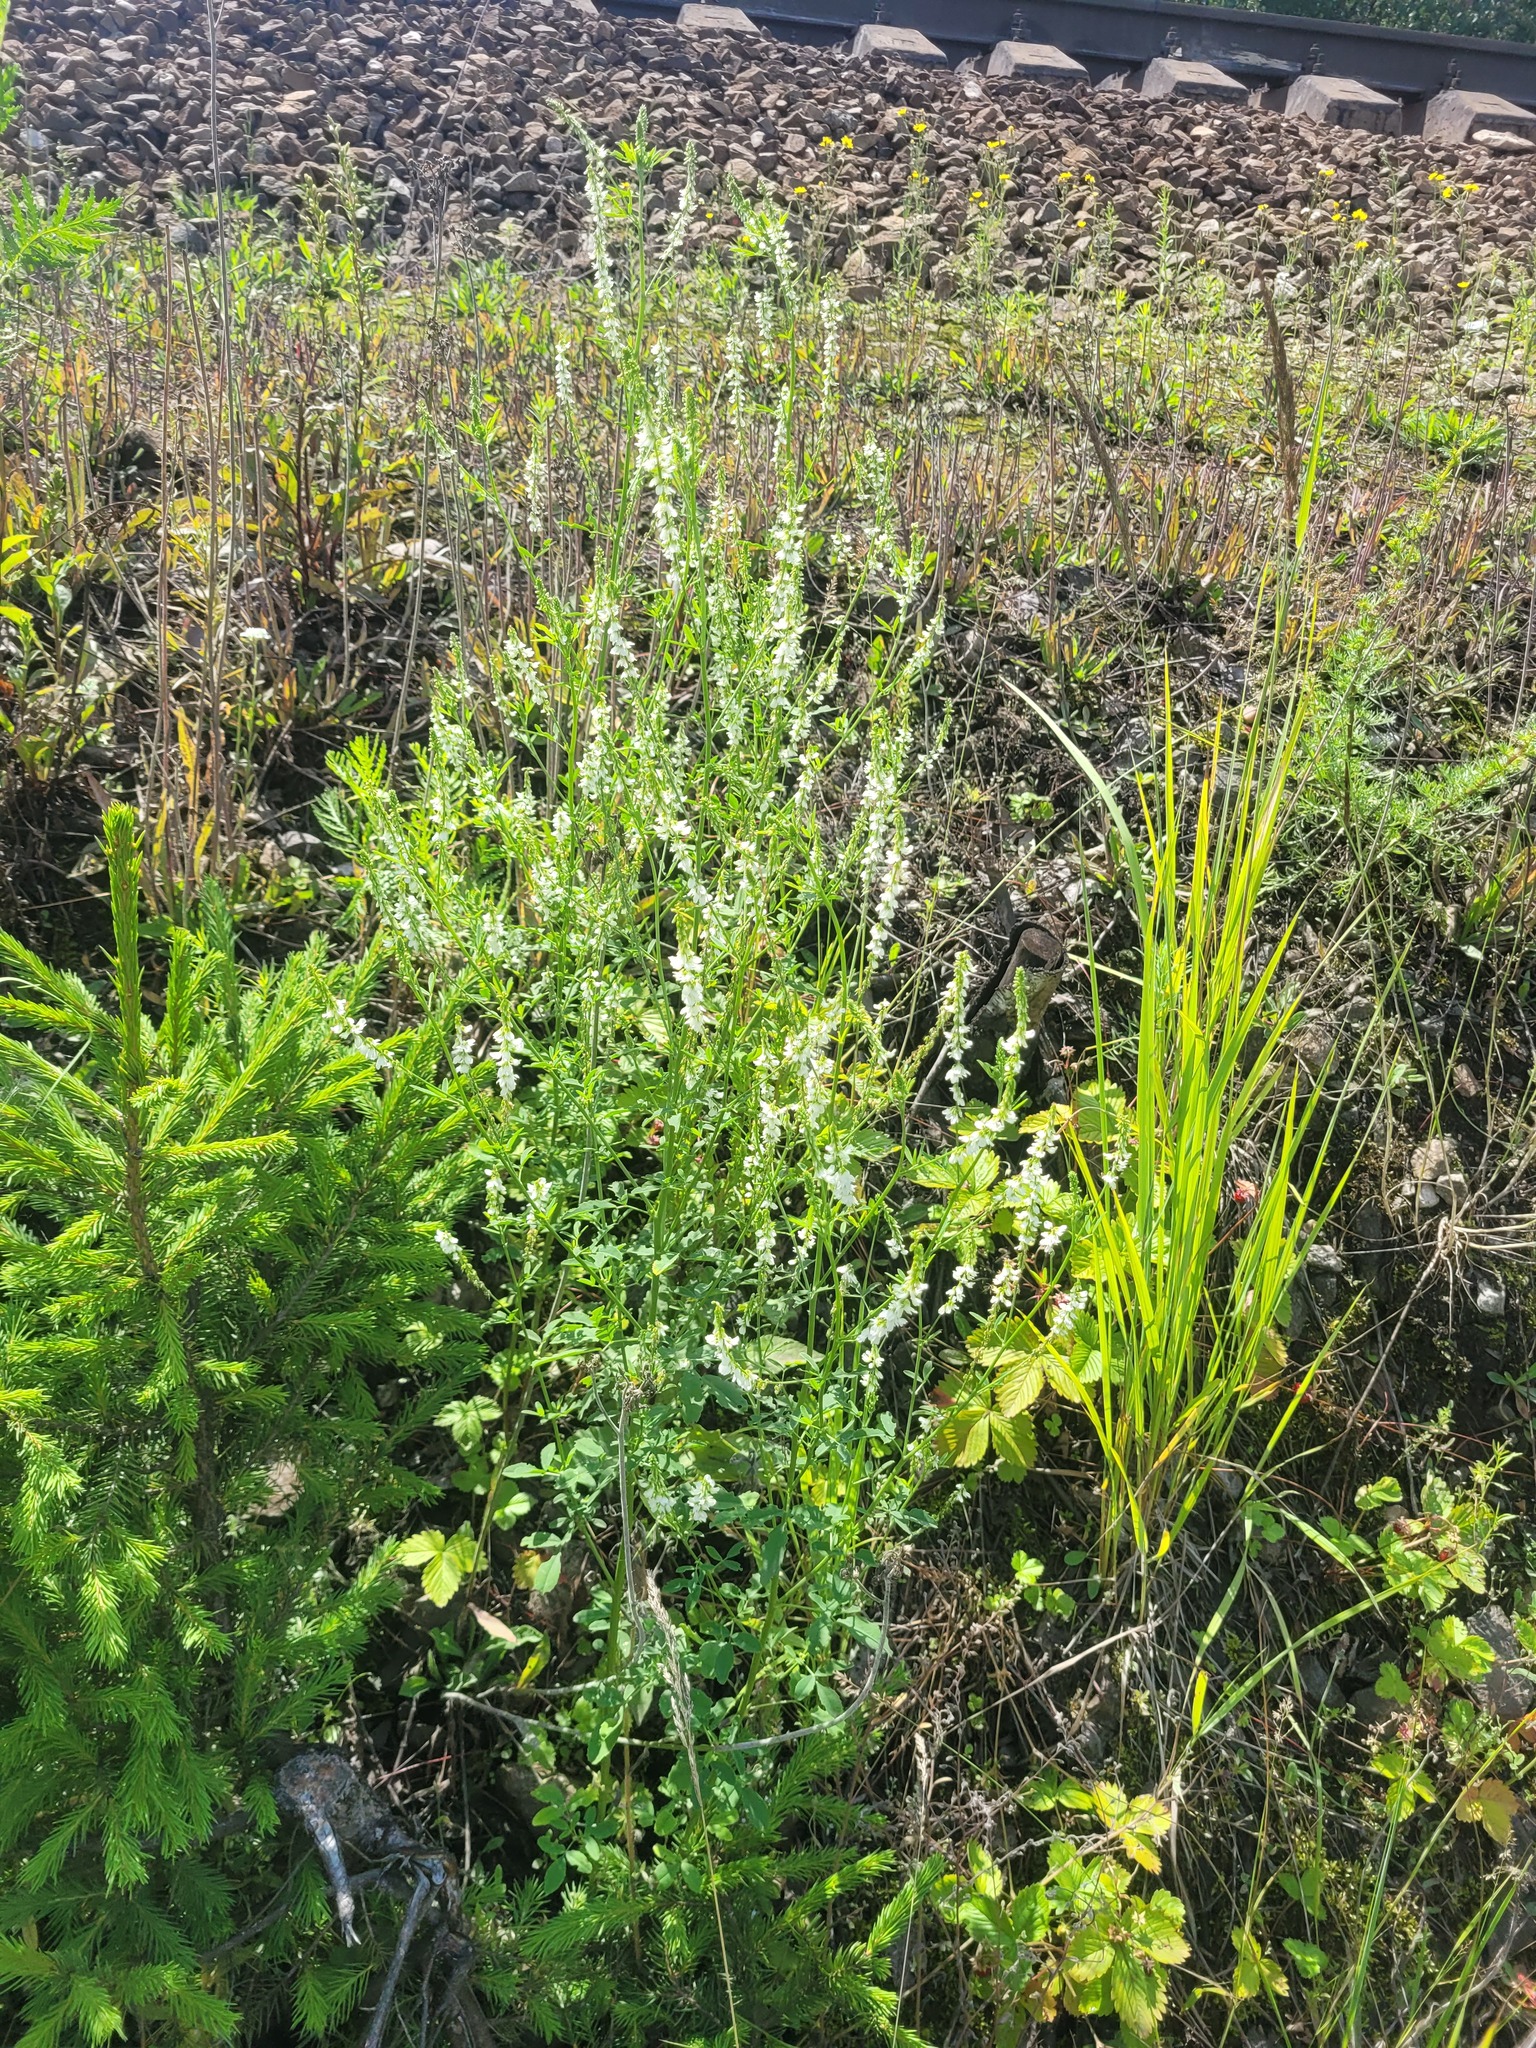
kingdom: Plantae
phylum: Tracheophyta
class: Magnoliopsida
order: Fabales
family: Fabaceae
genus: Melilotus
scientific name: Melilotus albus
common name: White melilot
